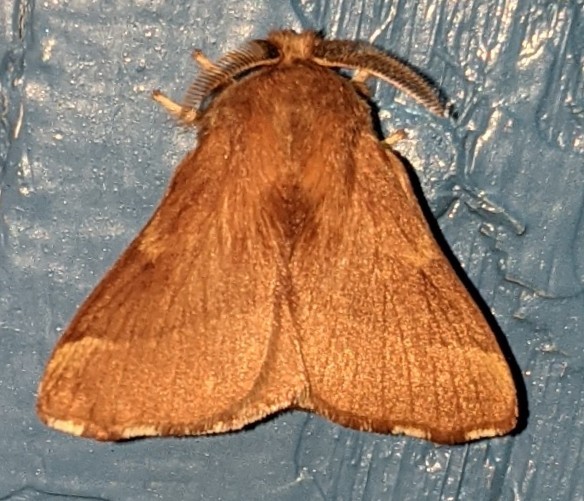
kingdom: Animalia
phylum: Arthropoda
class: Insecta
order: Lepidoptera
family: Lasiocampidae
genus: Malacosoma
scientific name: Malacosoma disstria
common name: Forest tent caterpillar
